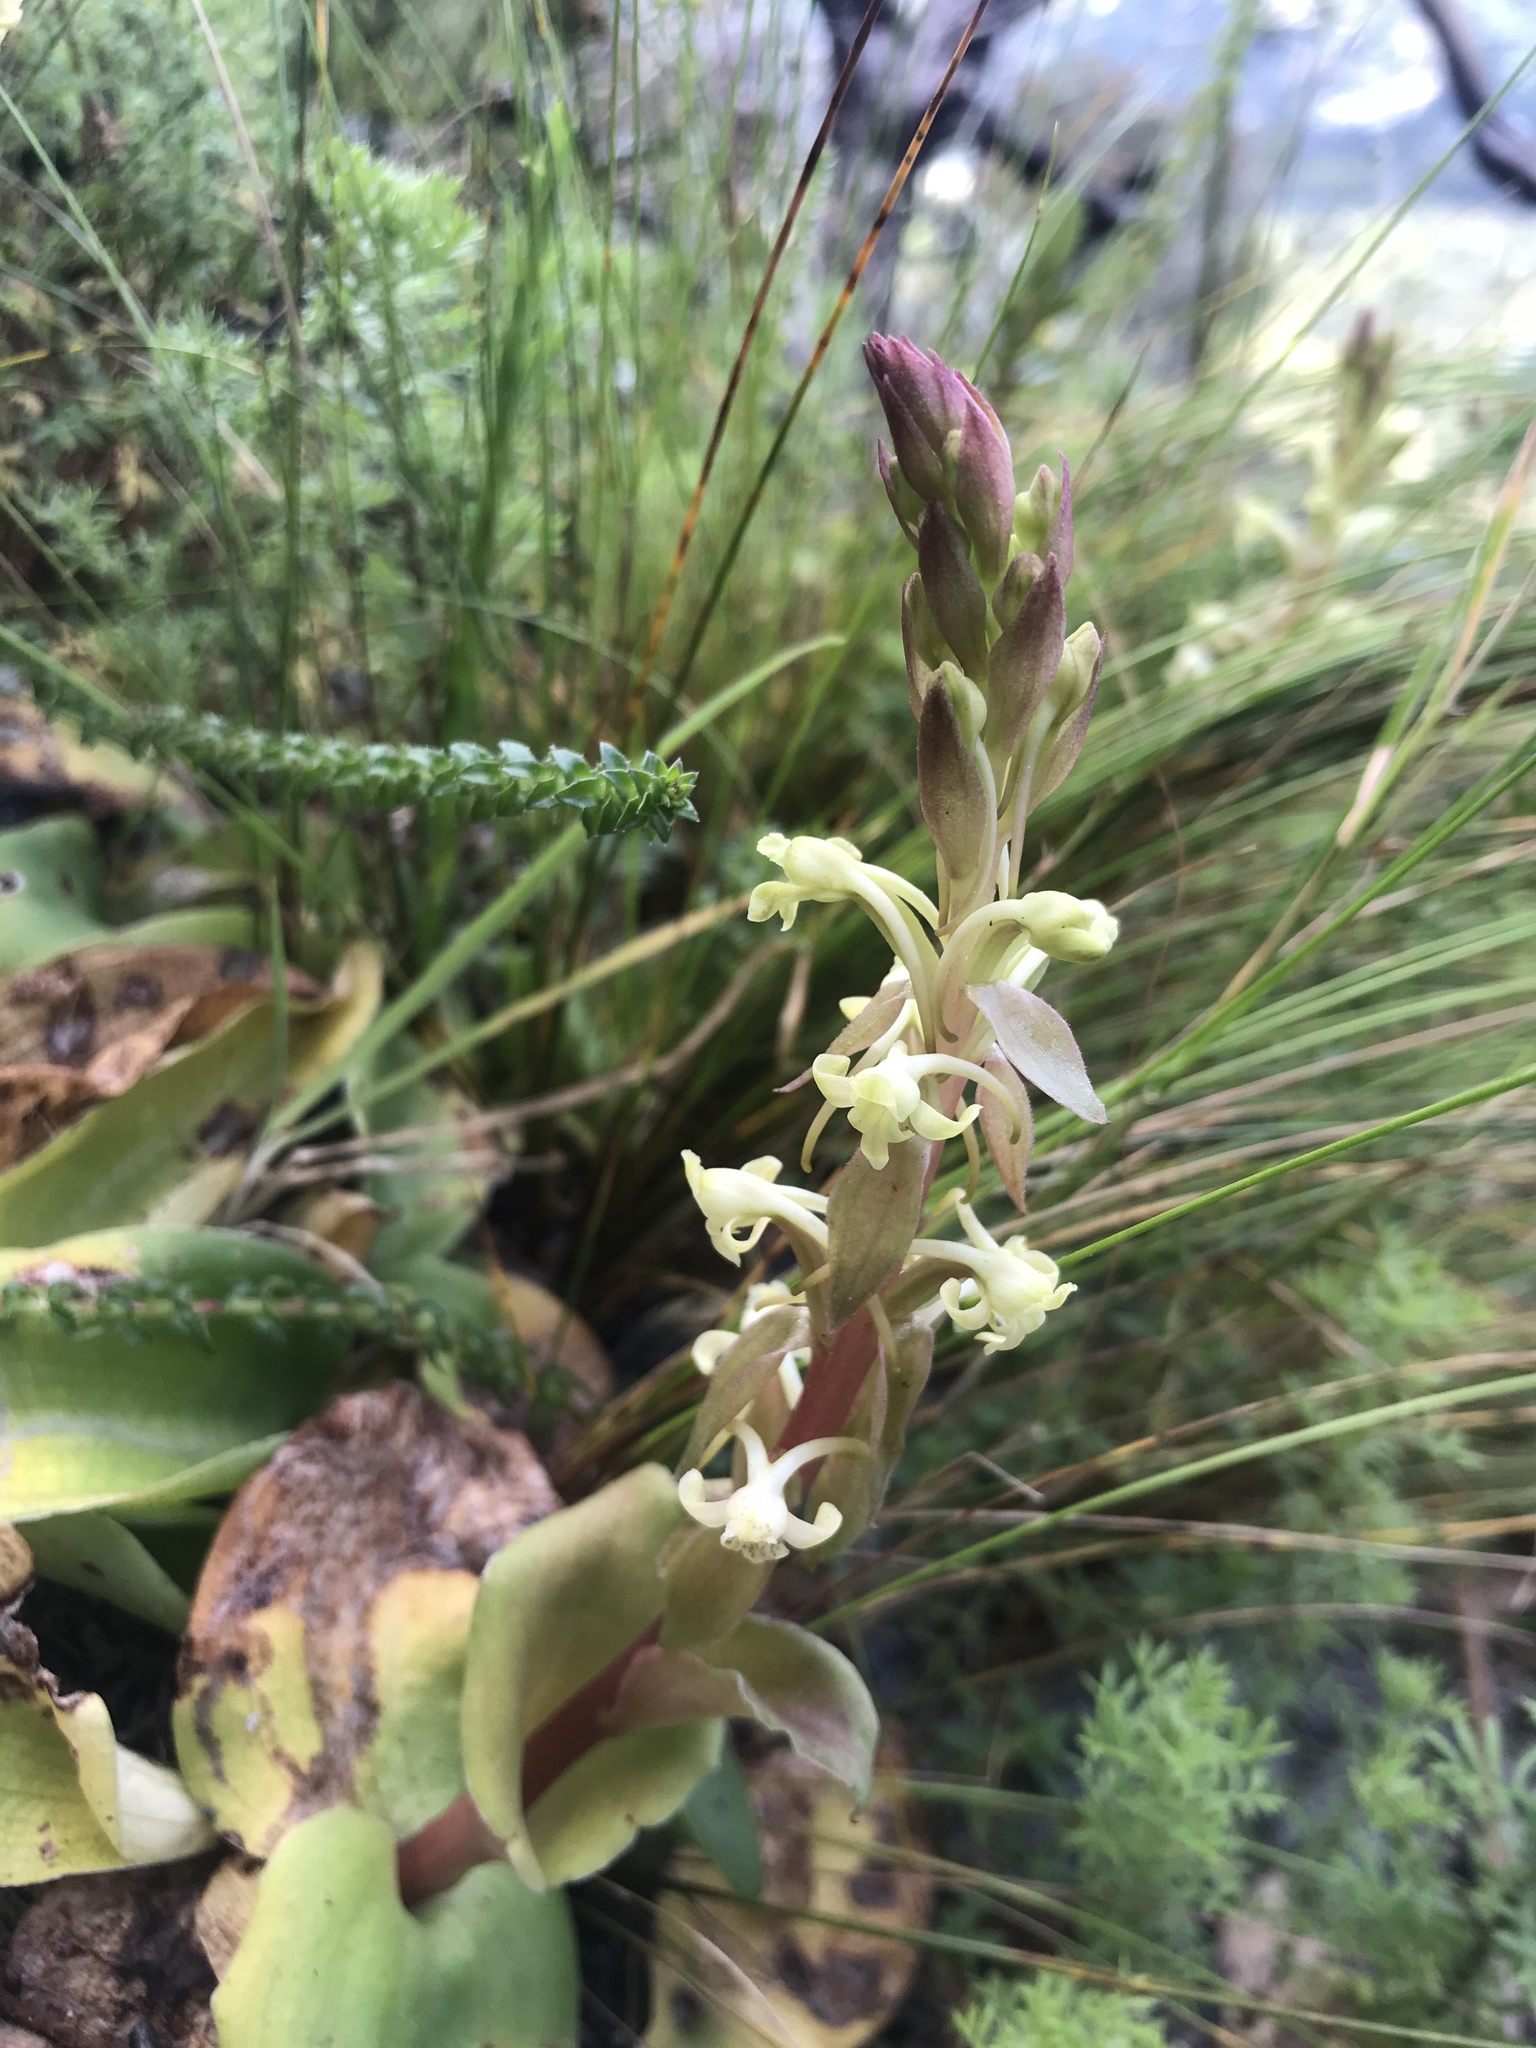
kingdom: Plantae
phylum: Tracheophyta
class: Liliopsida
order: Asparagales
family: Orchidaceae
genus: Satyrium
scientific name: Satyrium humile
